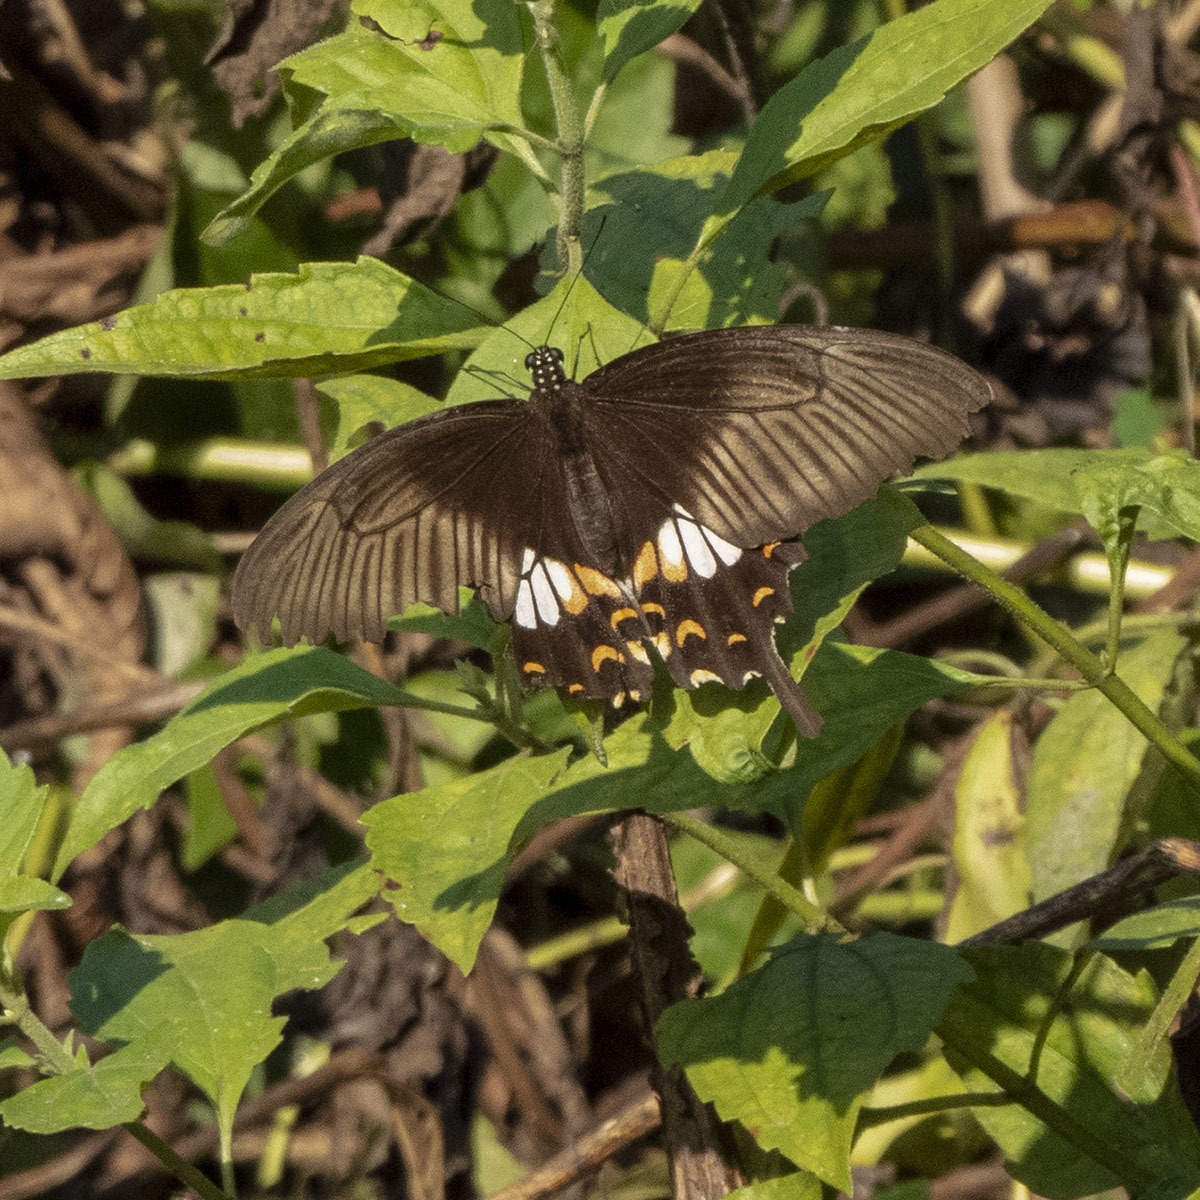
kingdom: Animalia
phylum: Arthropoda
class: Insecta
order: Lepidoptera
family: Papilionidae
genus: Papilio
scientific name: Papilio polytes
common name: Common mormon
